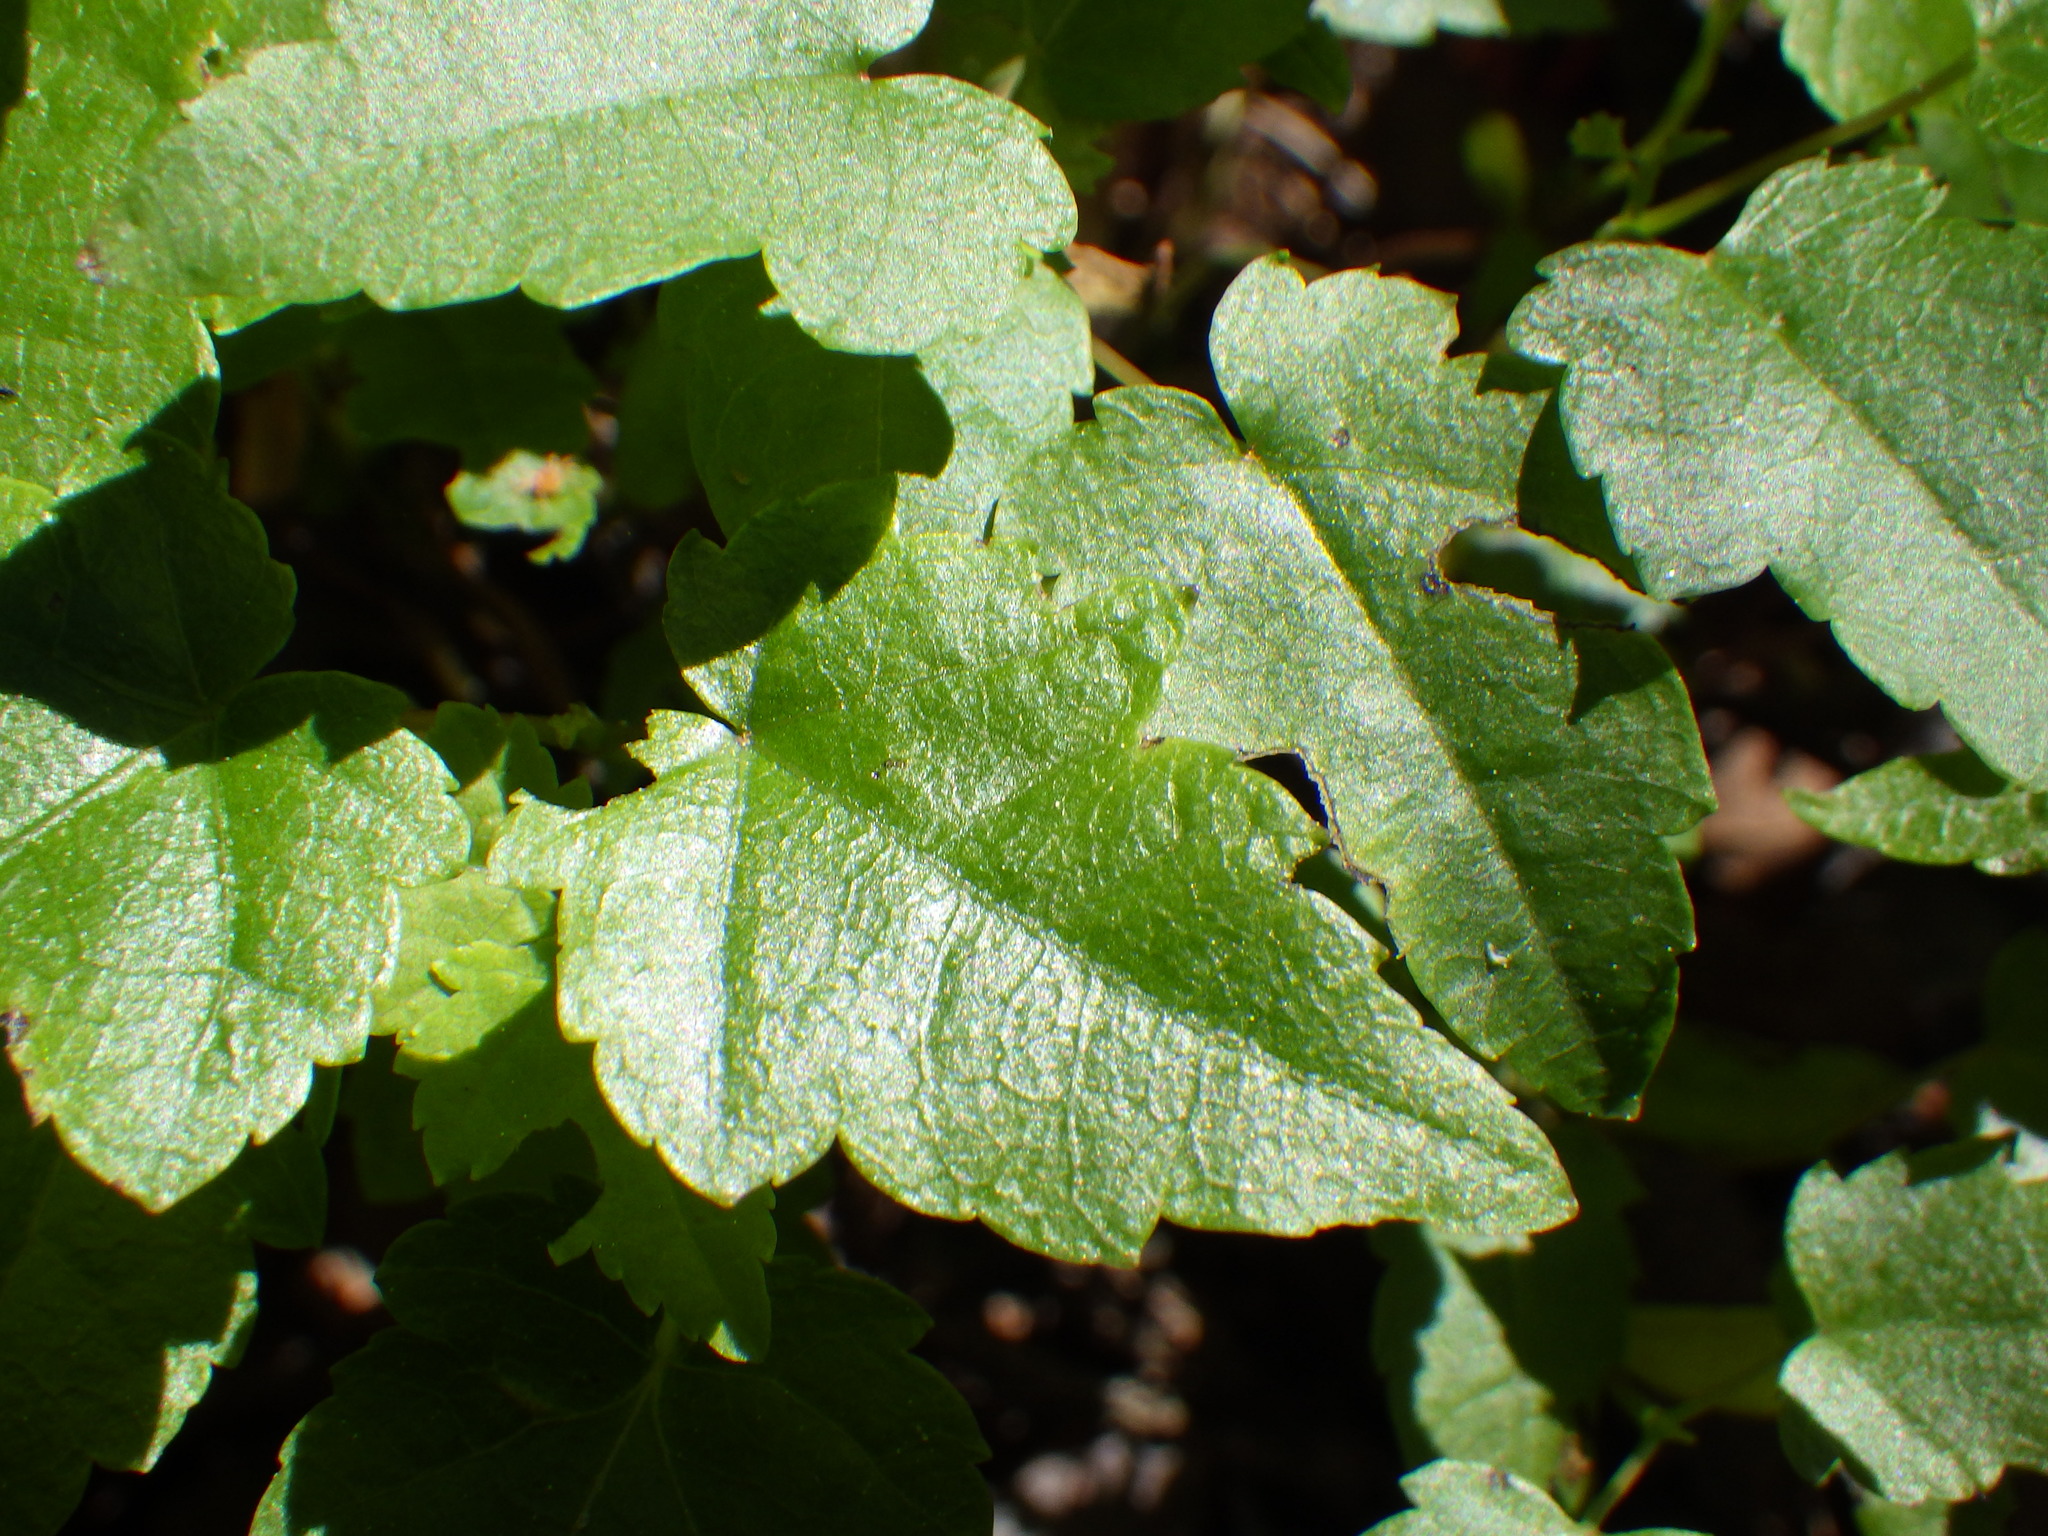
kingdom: Plantae
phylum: Tracheophyta
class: Magnoliopsida
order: Sapindales
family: Sapindaceae
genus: Acer
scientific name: Acer rubrum
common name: Red maple
